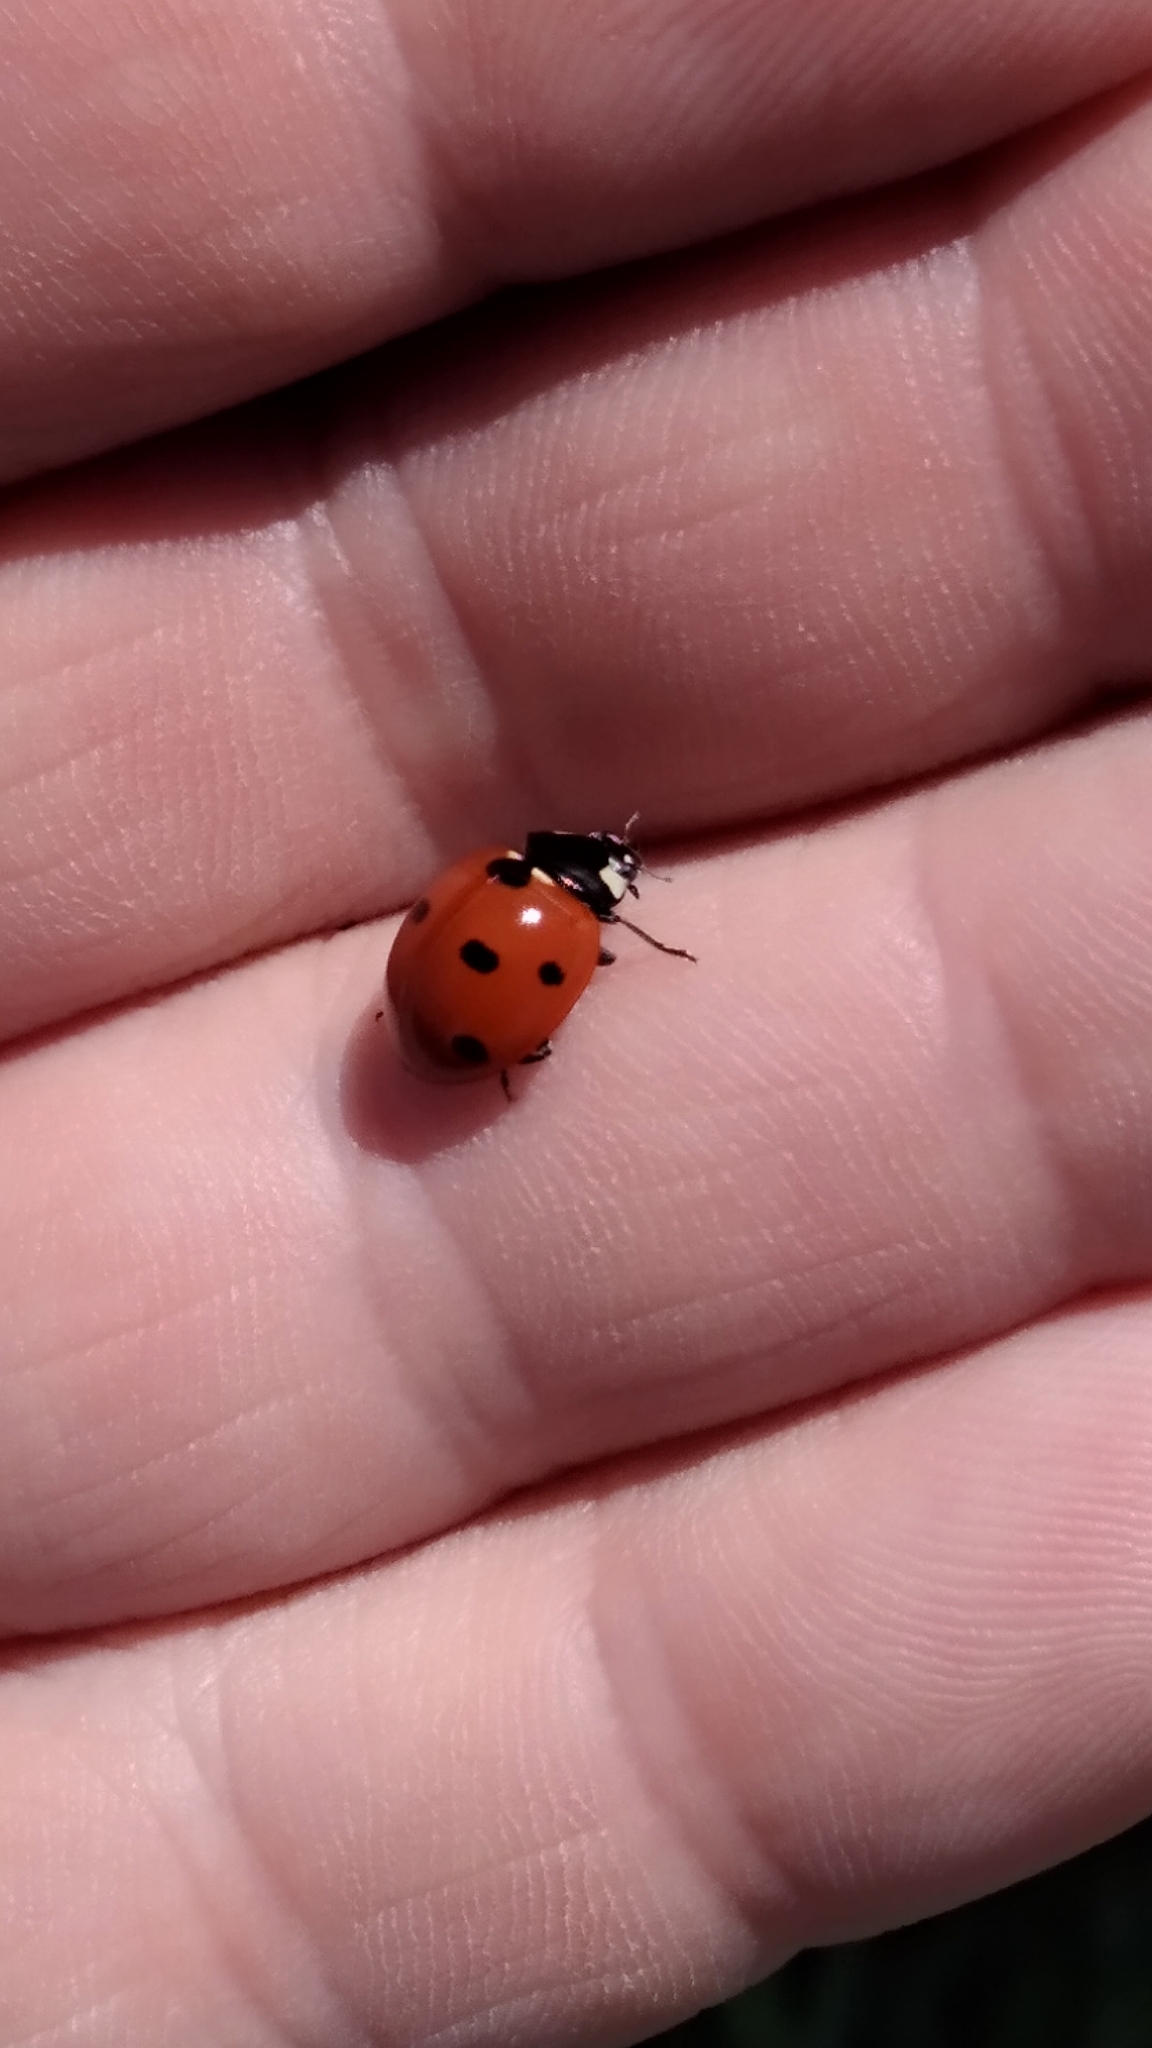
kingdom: Animalia
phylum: Arthropoda
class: Insecta
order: Coleoptera
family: Coccinellidae
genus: Coccinella
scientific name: Coccinella septempunctata
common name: Sevenspotted lady beetle
